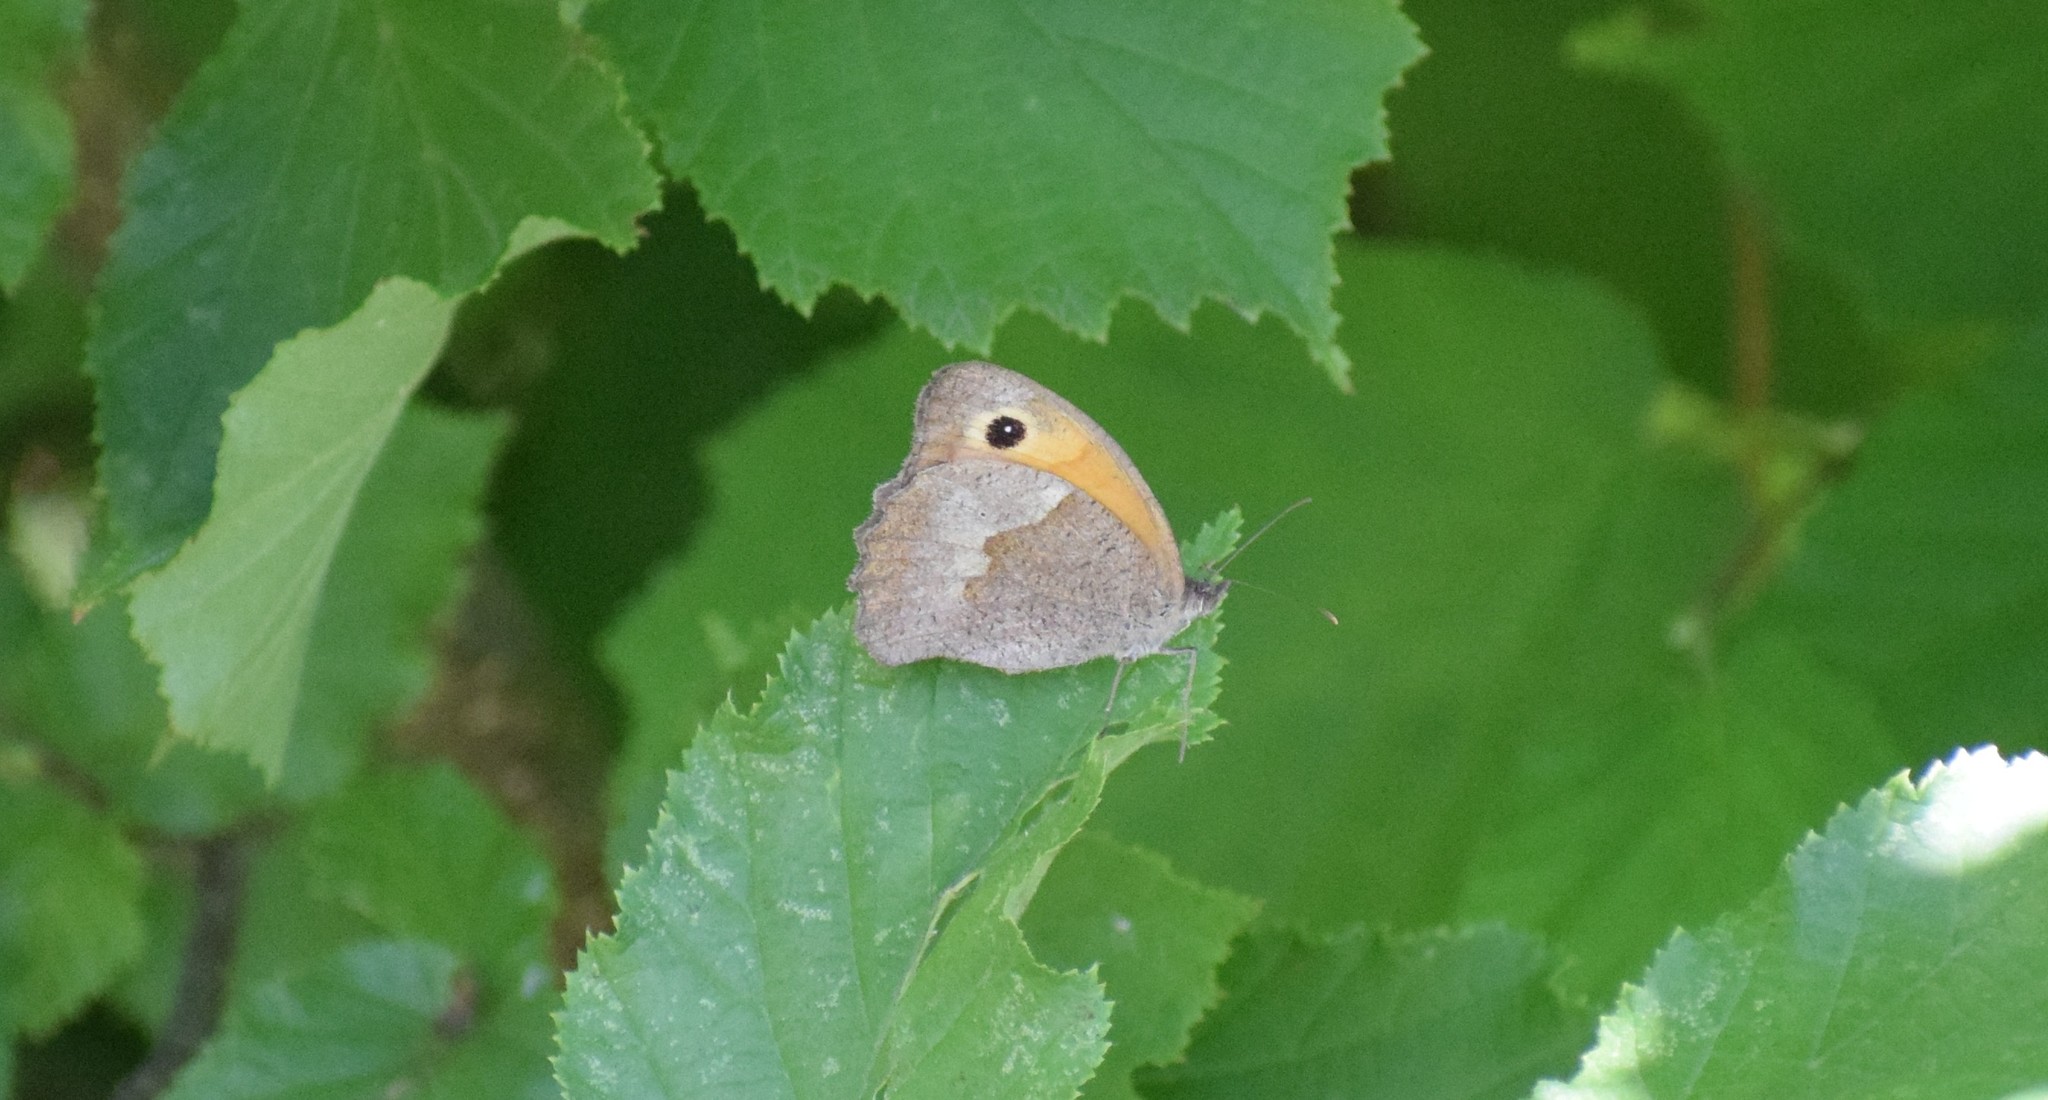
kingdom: Animalia
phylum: Arthropoda
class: Insecta
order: Lepidoptera
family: Nymphalidae
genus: Maniola
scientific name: Maniola jurtina
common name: Meadow brown
